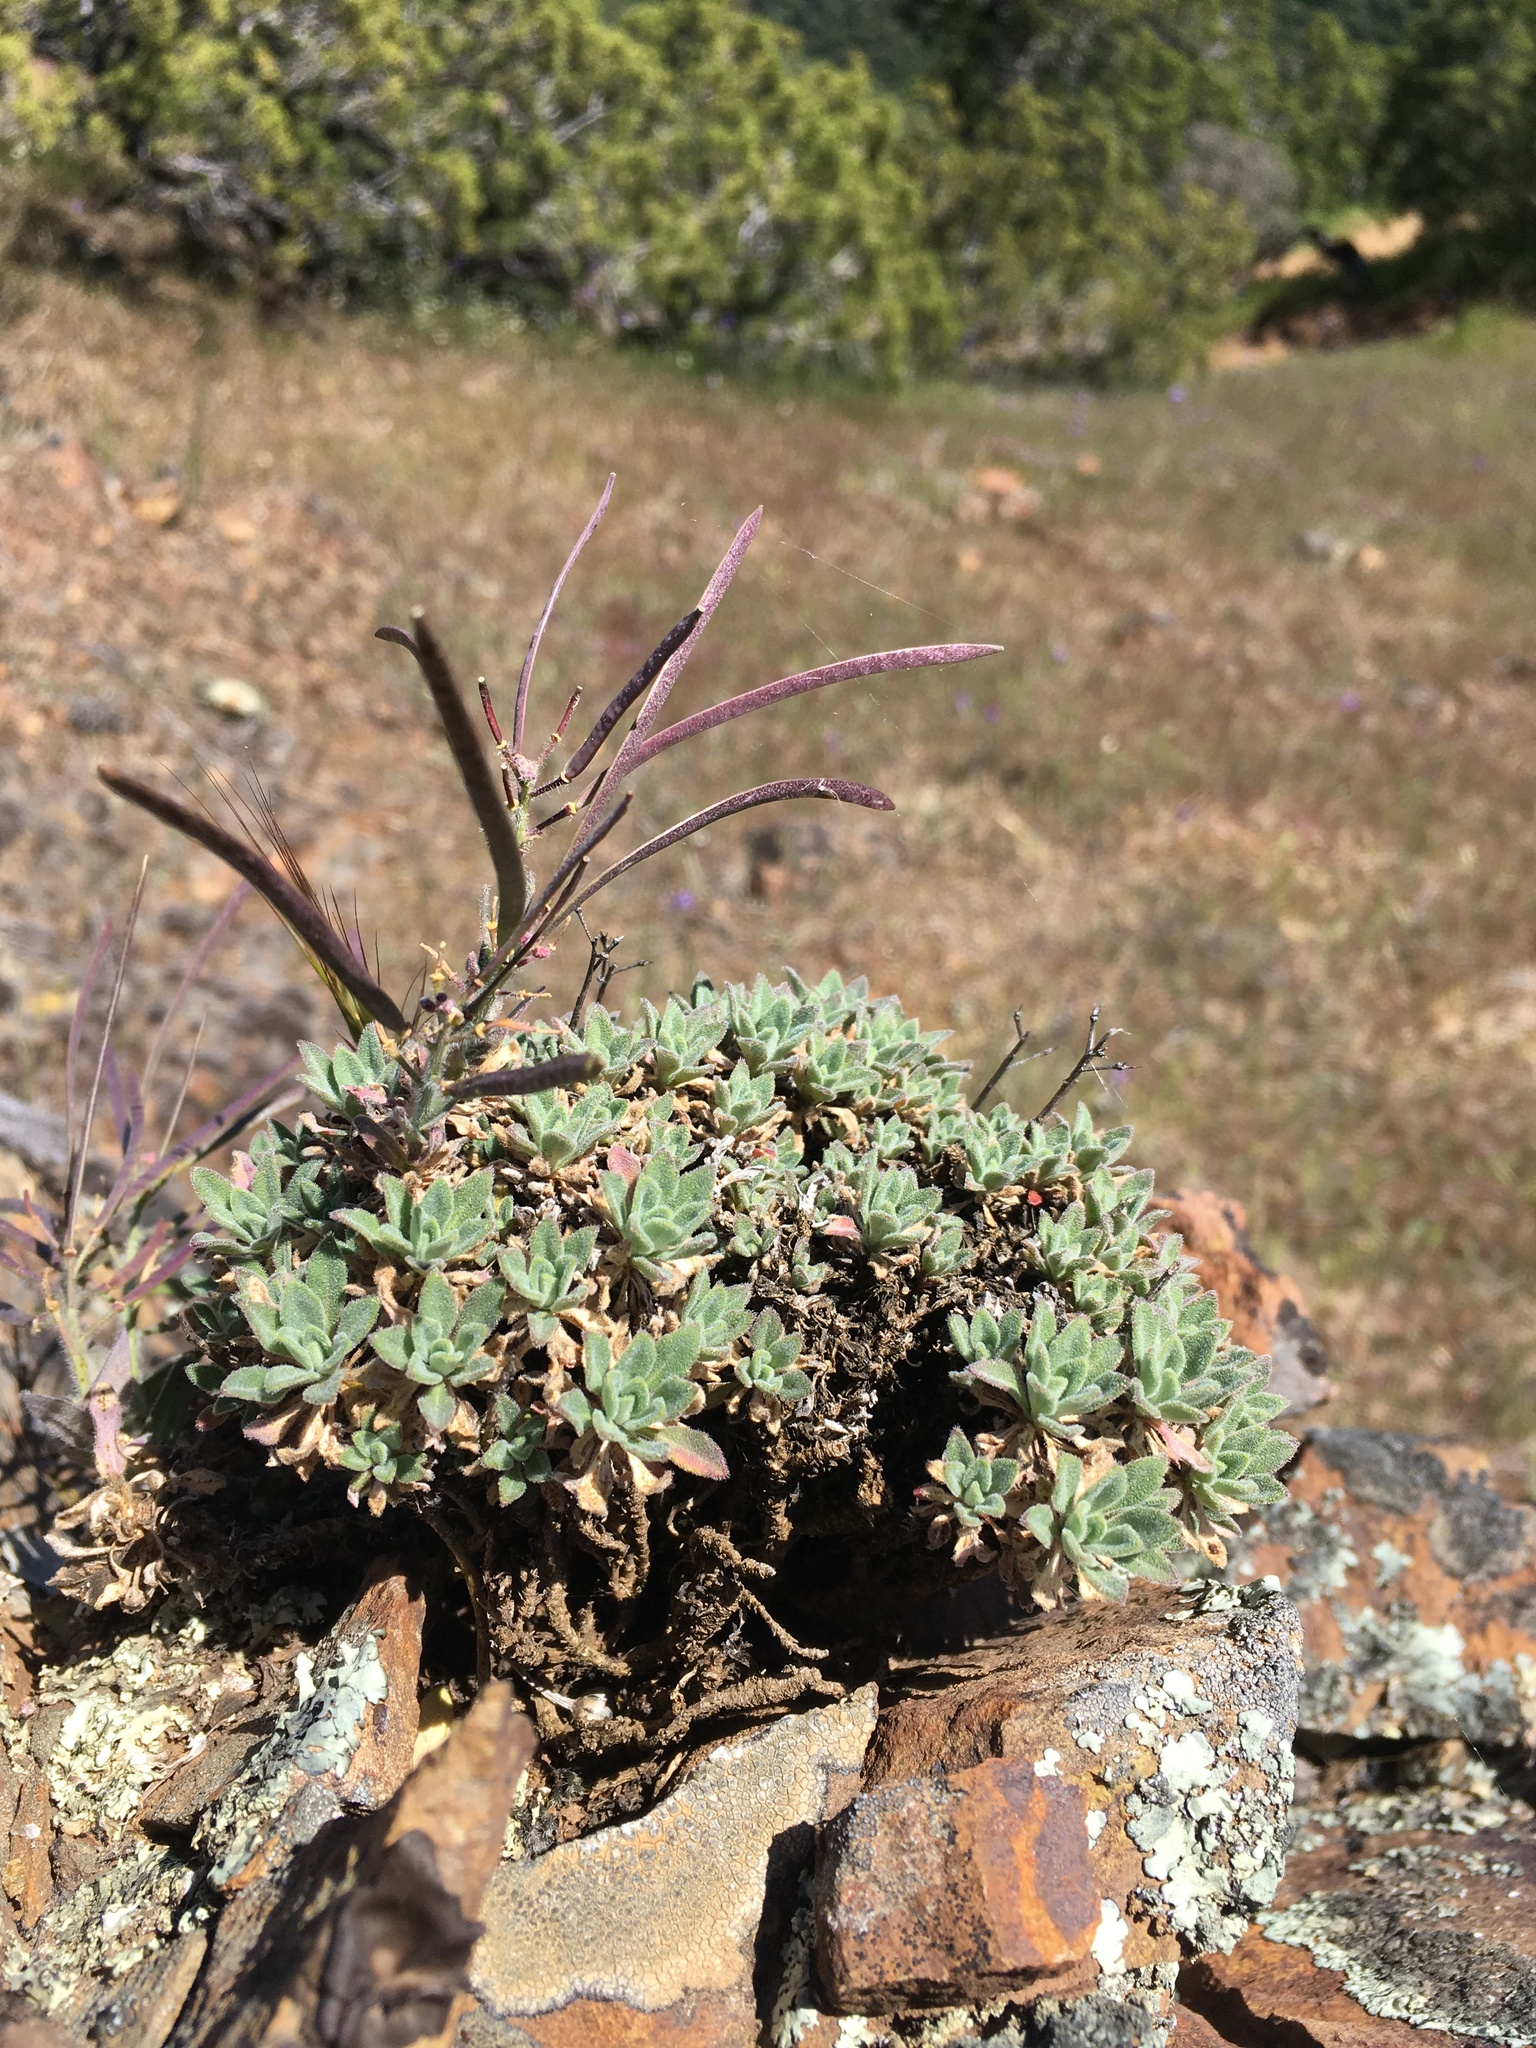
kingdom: Plantae
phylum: Tracheophyta
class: Magnoliopsida
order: Brassicales
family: Brassicaceae
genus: Boechera
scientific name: Boechera breweri
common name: Brewer's rockcress
